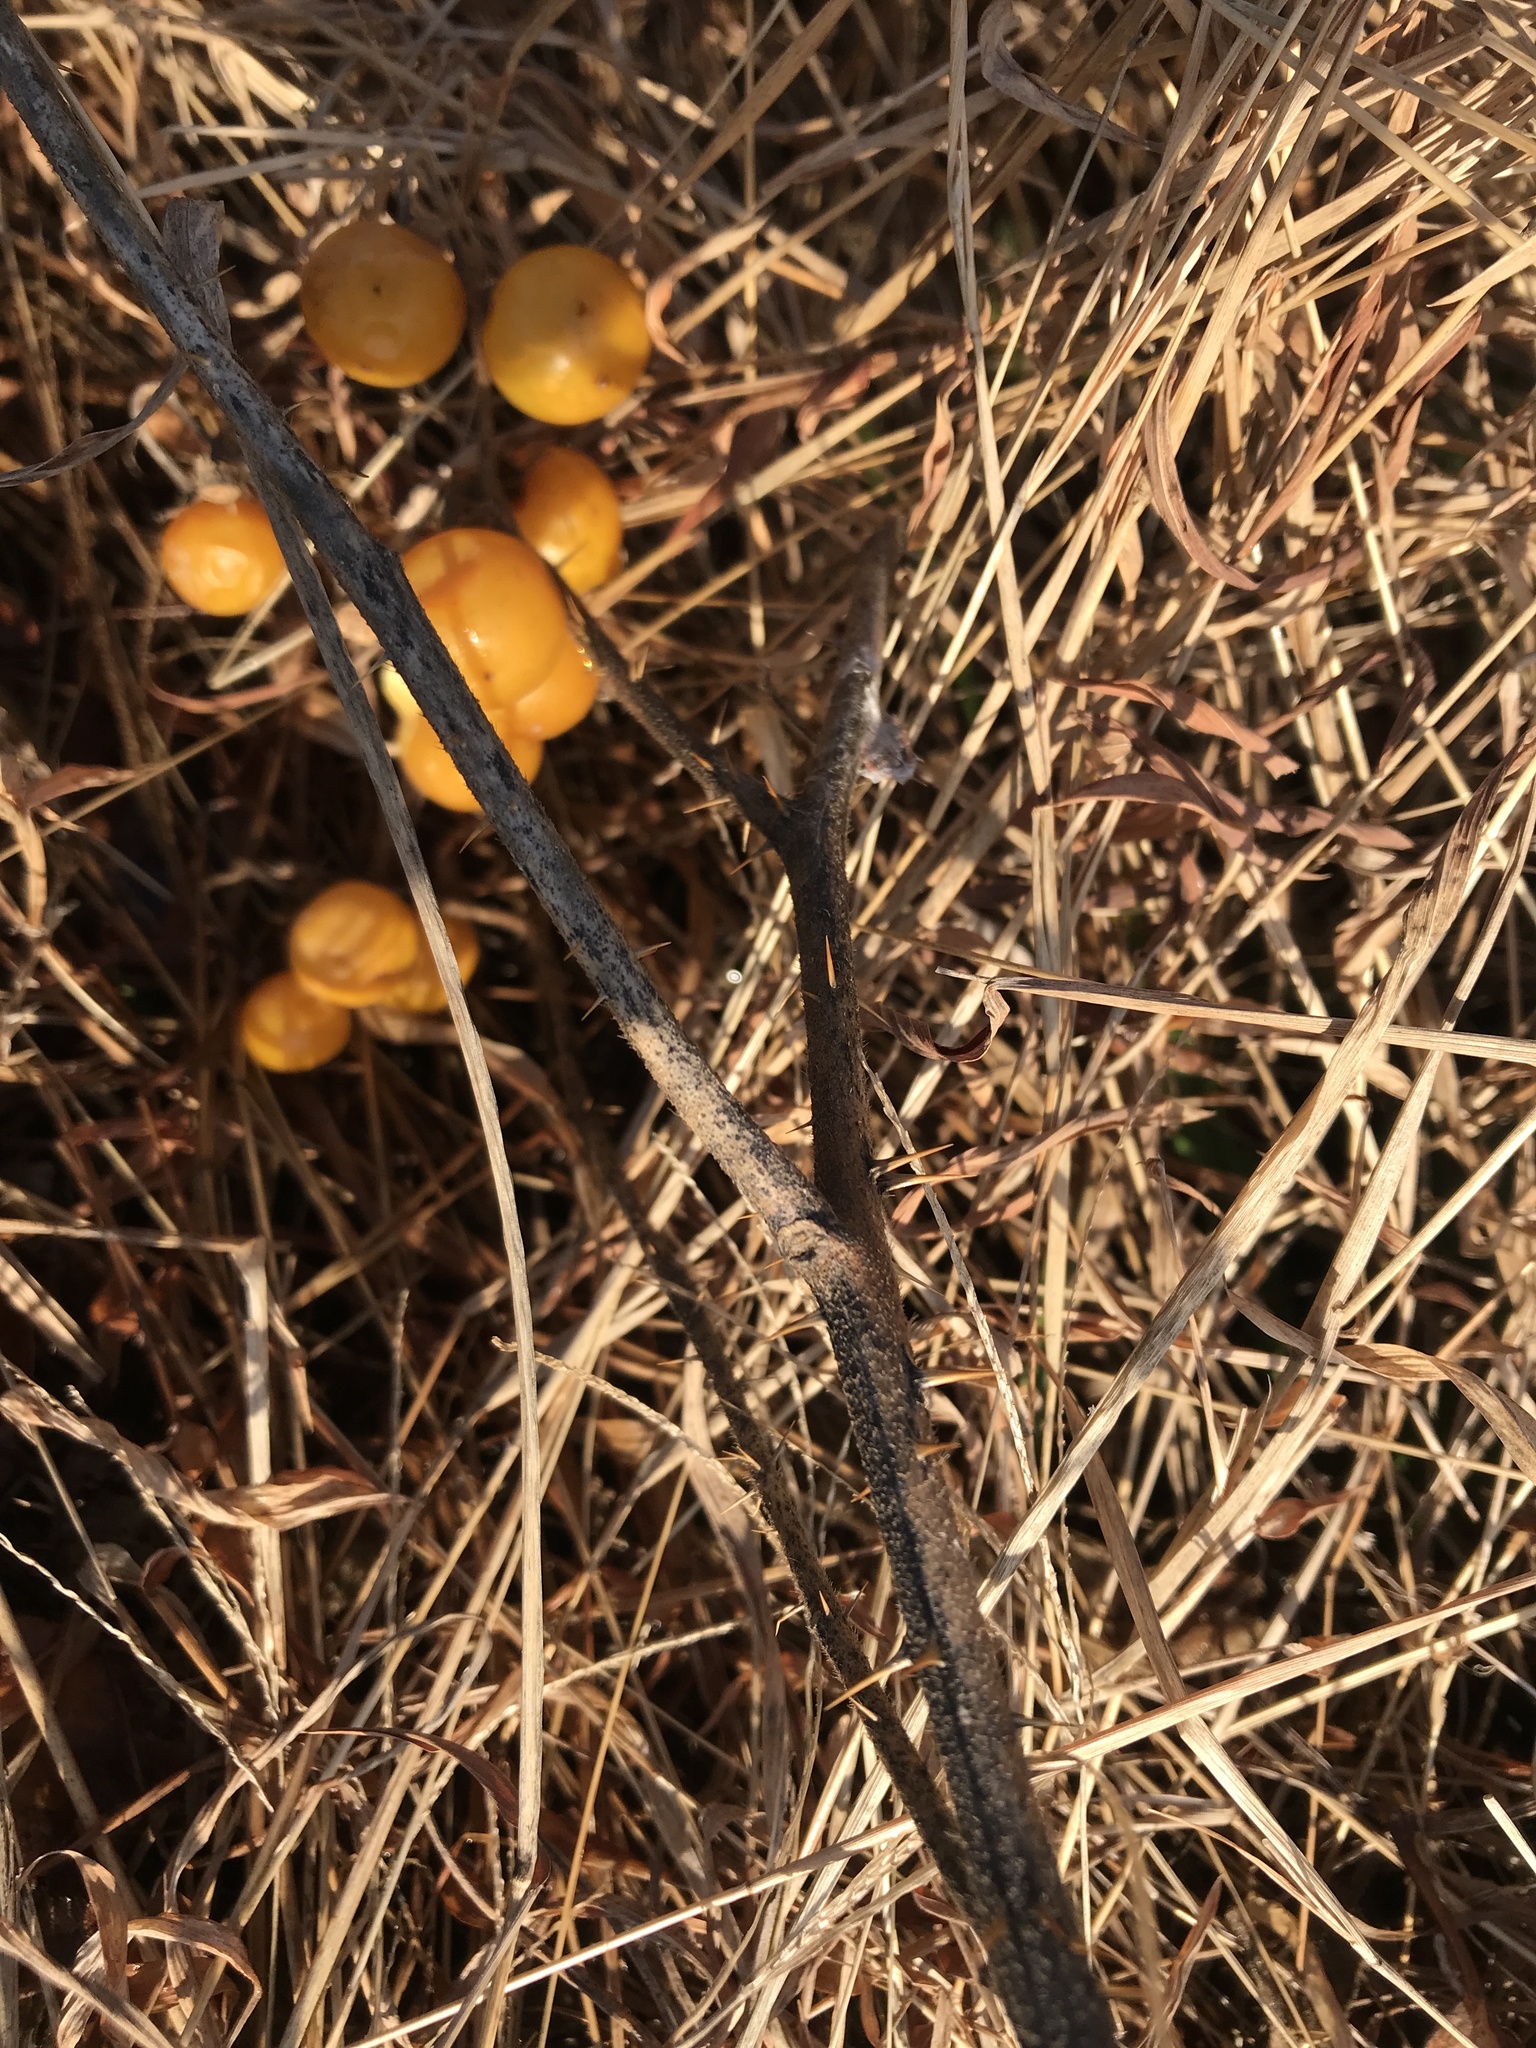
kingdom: Plantae
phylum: Tracheophyta
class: Magnoliopsida
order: Solanales
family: Solanaceae
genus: Solanum
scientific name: Solanum carolinense
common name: Horse-nettle
